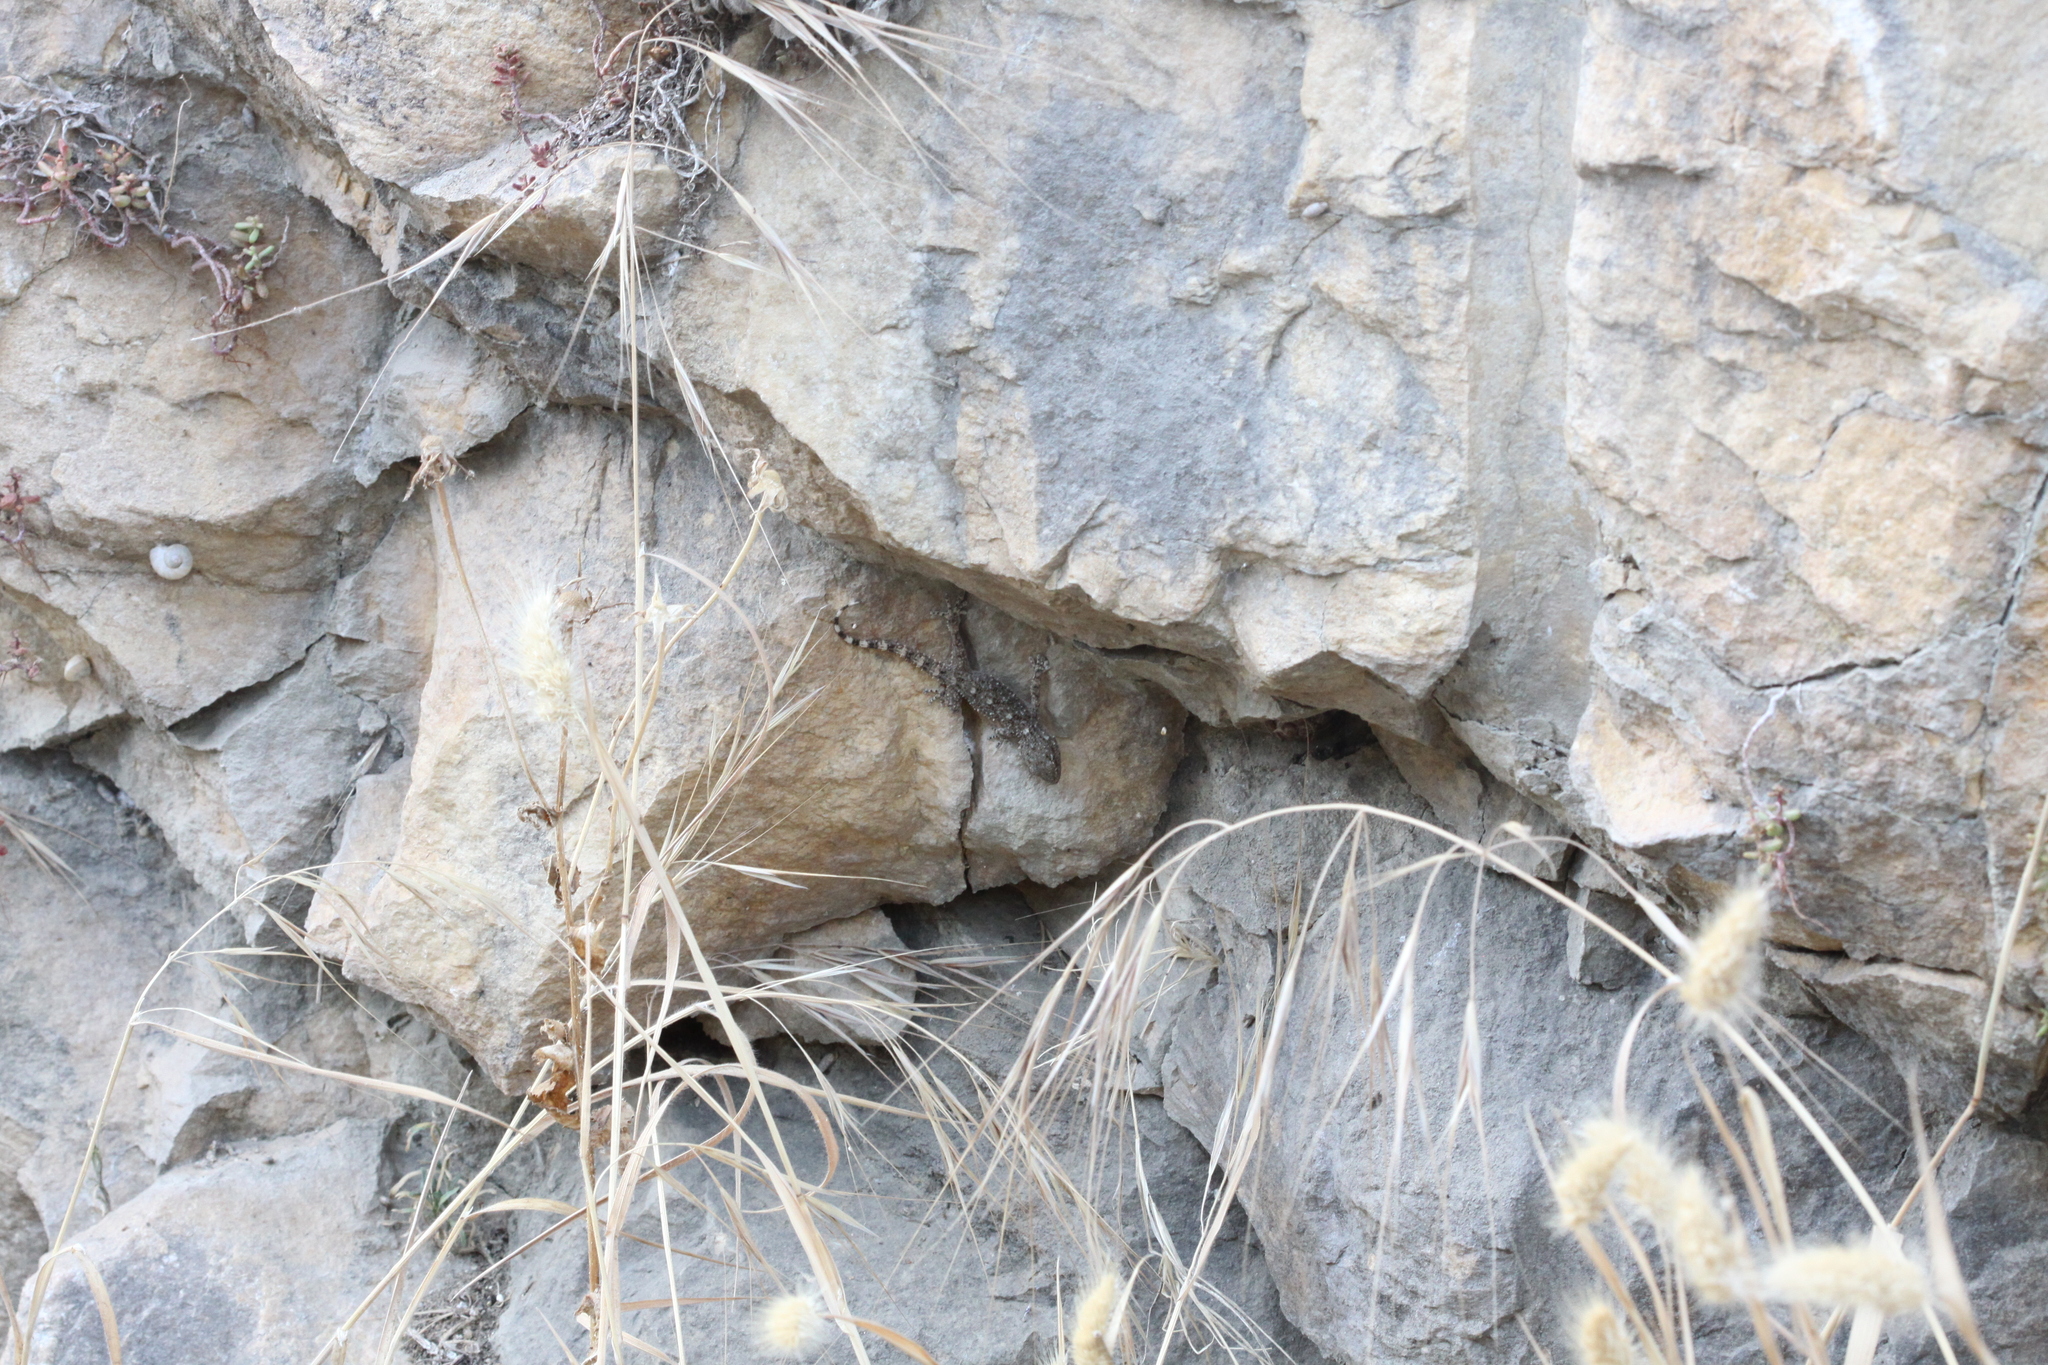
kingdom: Animalia
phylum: Chordata
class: Squamata
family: Phyllodactylidae
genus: Tarentola
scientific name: Tarentola mauritanica
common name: Moorish gecko
